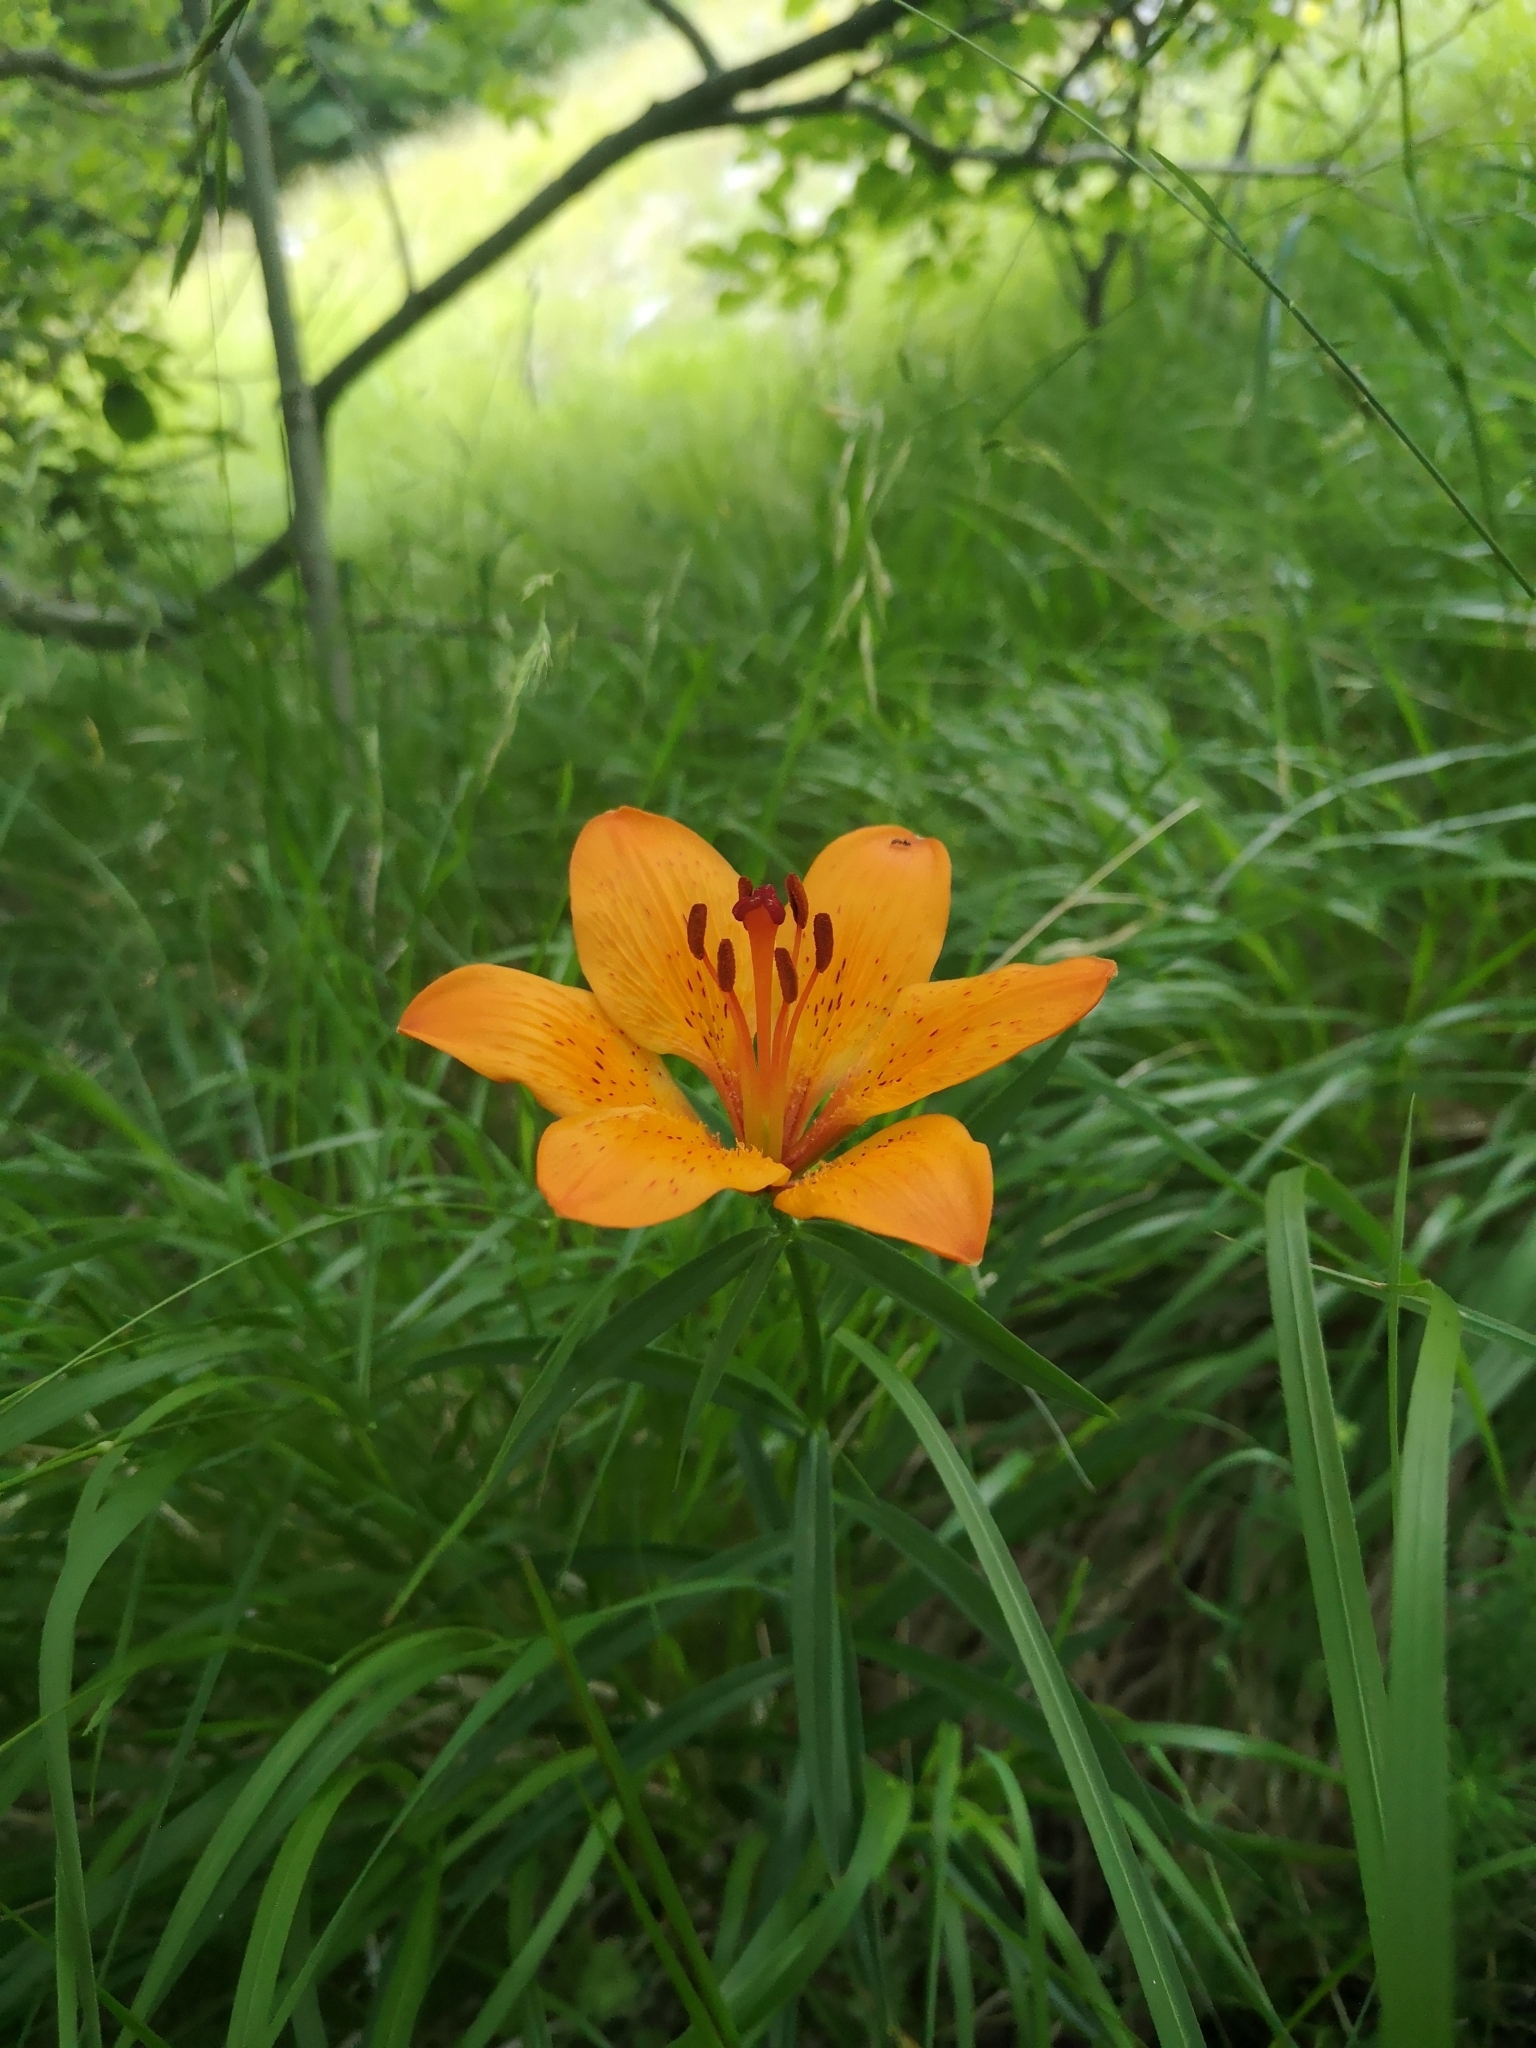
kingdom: Plantae
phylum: Tracheophyta
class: Liliopsida
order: Liliales
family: Liliaceae
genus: Lilium
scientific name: Lilium bulbiferum
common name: Orange lily
